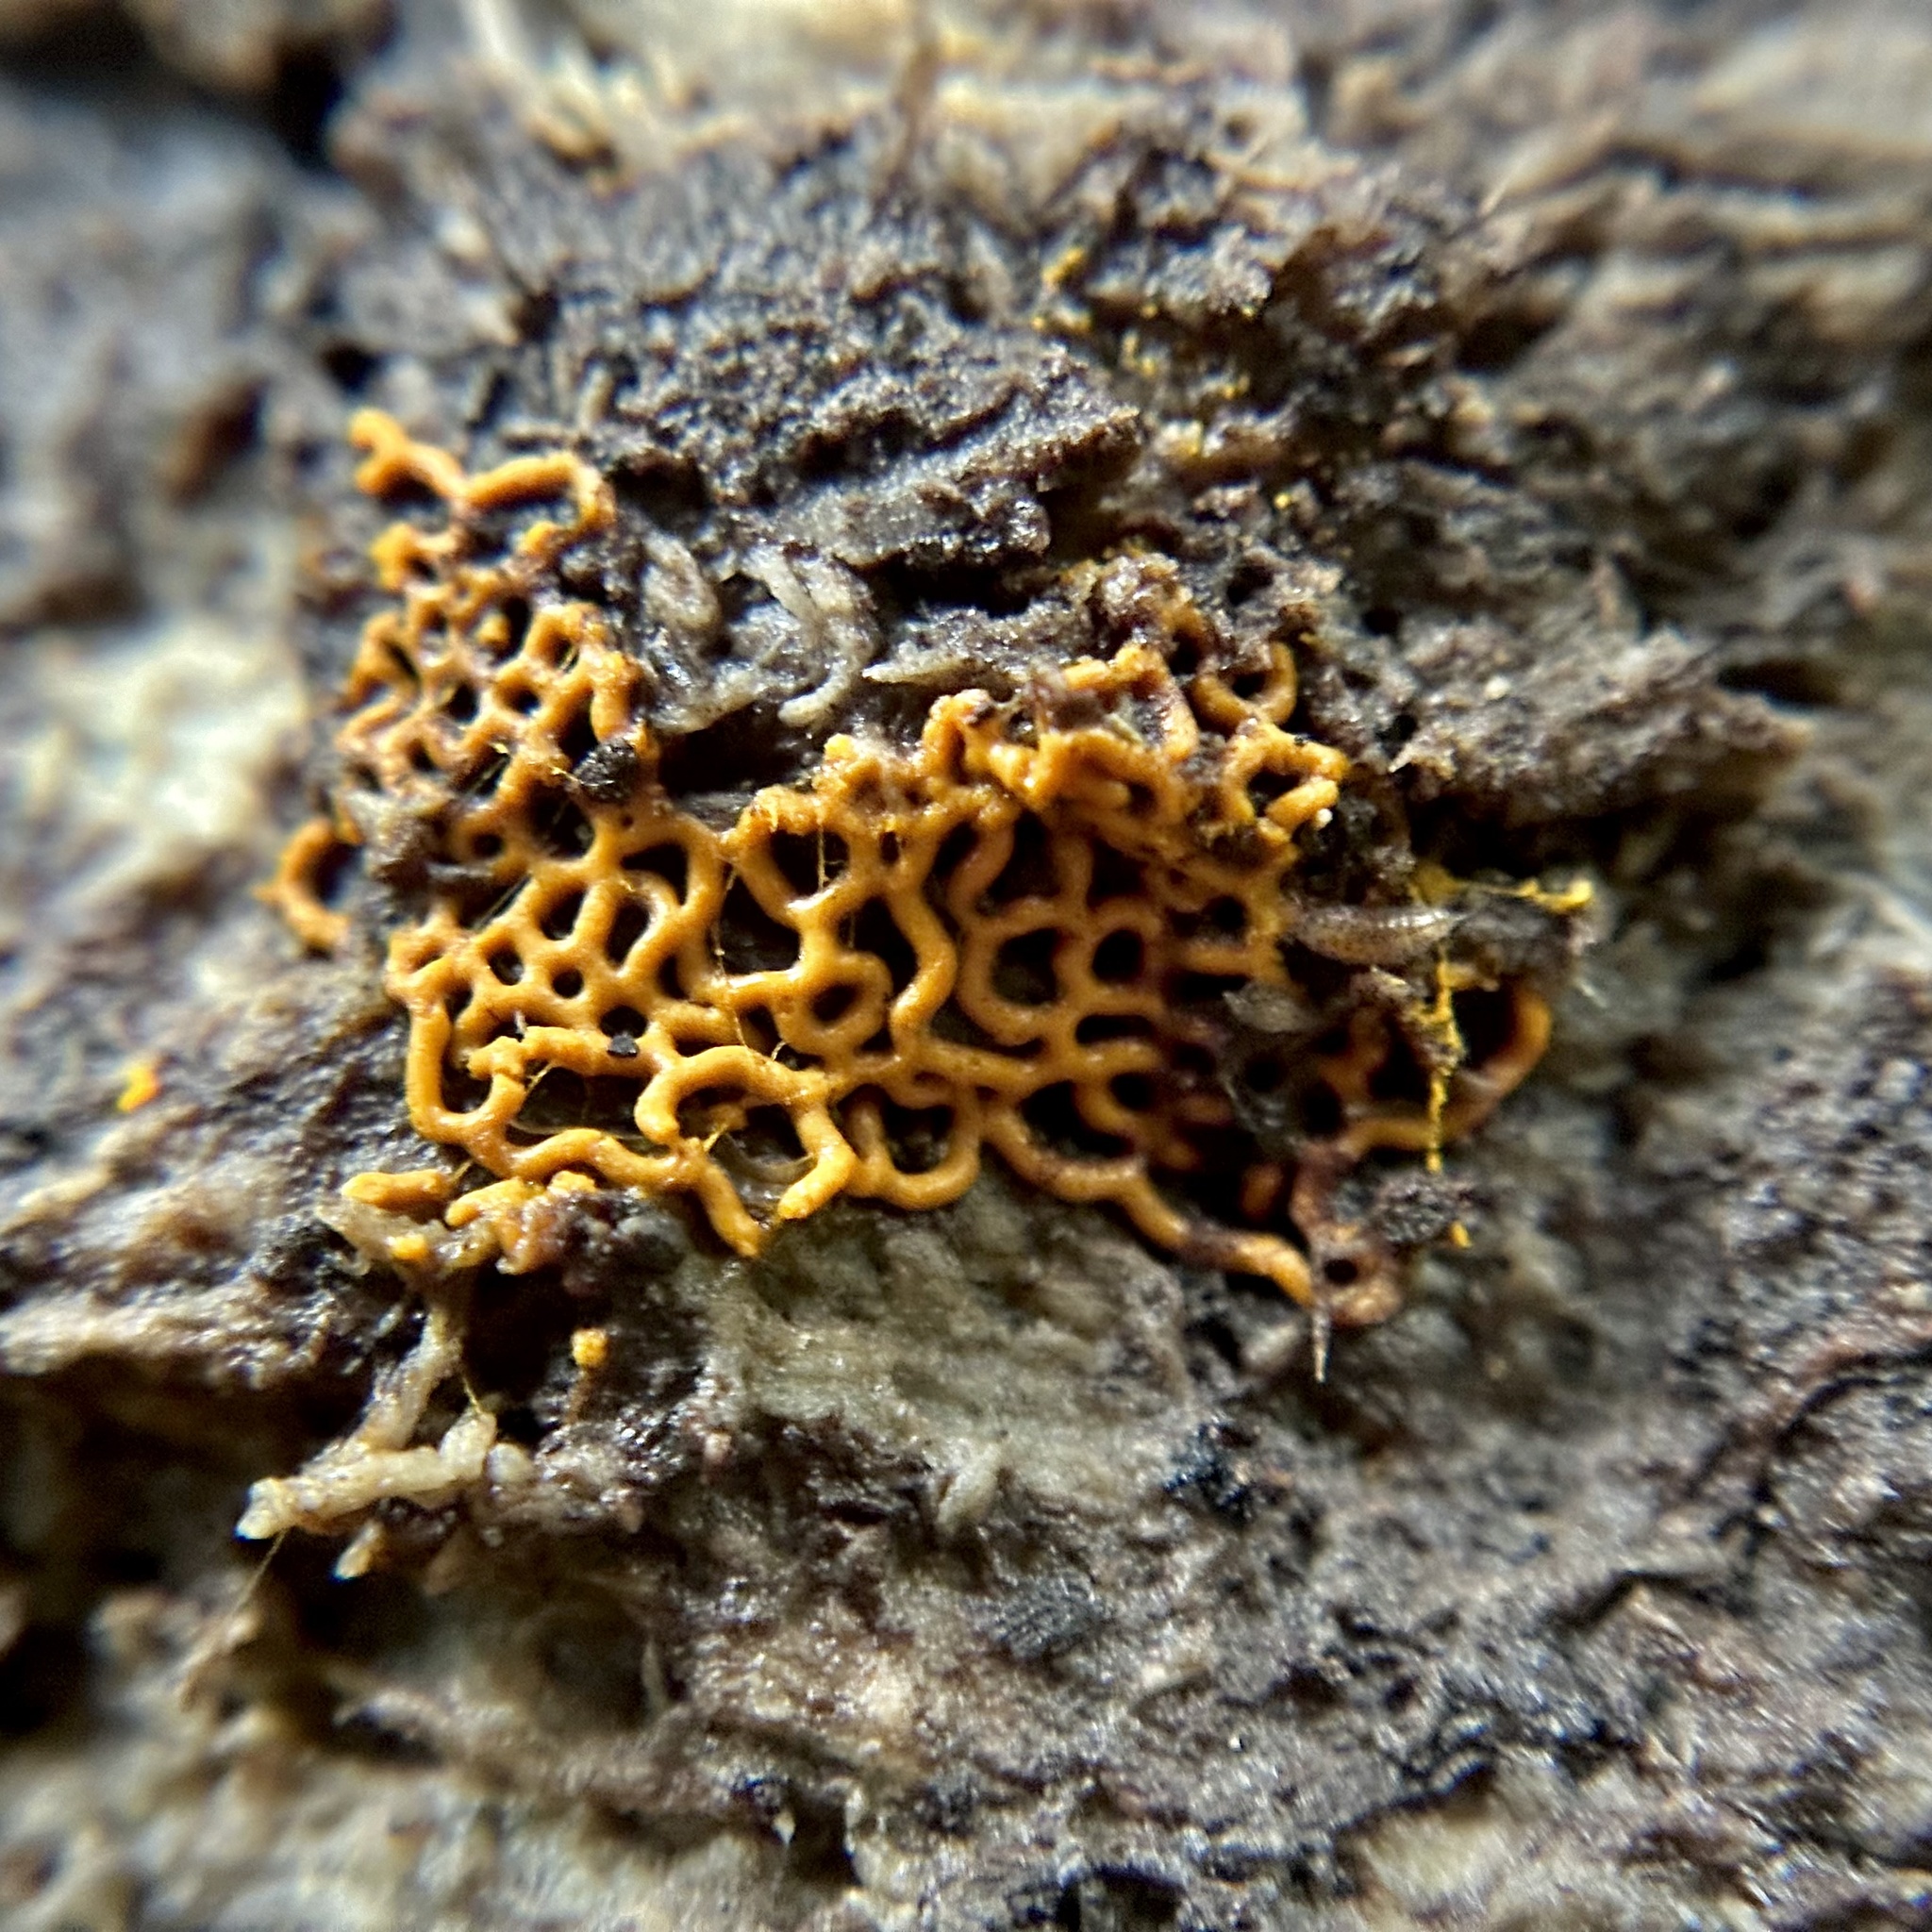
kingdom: Protozoa
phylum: Mycetozoa
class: Myxomycetes
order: Trichiales
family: Arcyriaceae
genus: Hemitrichia
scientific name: Hemitrichia serpula
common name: Pretzel slime mold
